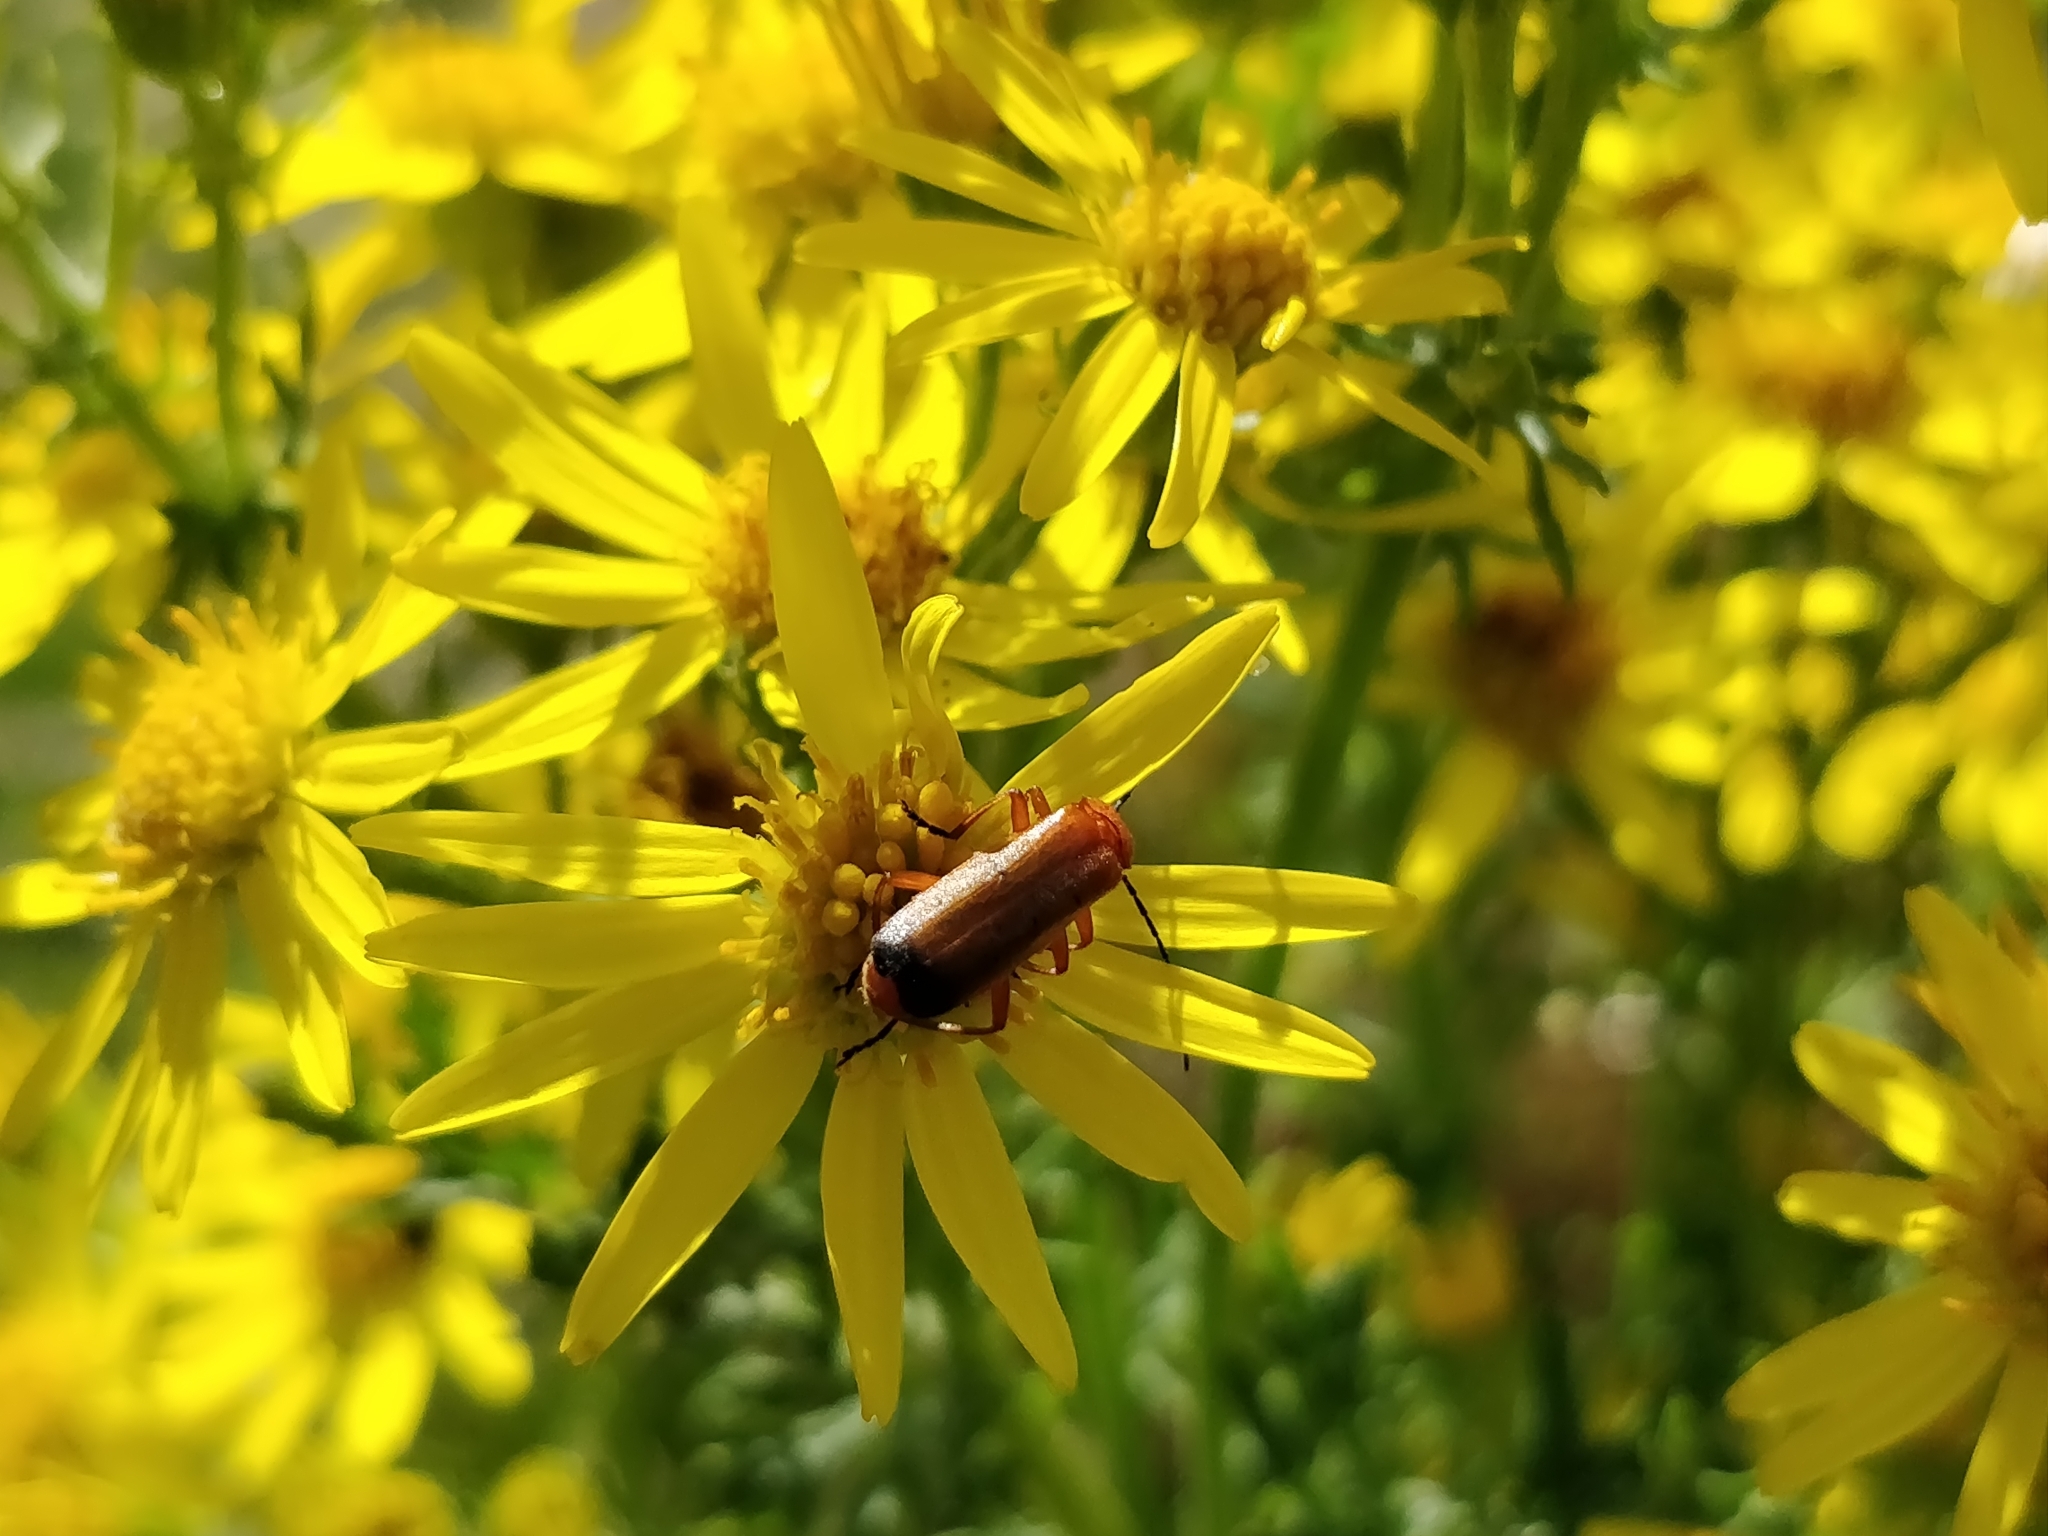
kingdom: Animalia
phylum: Arthropoda
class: Insecta
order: Coleoptera
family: Cantharidae
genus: Rhagonycha
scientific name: Rhagonycha fulva
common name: Common red soldier beetle
